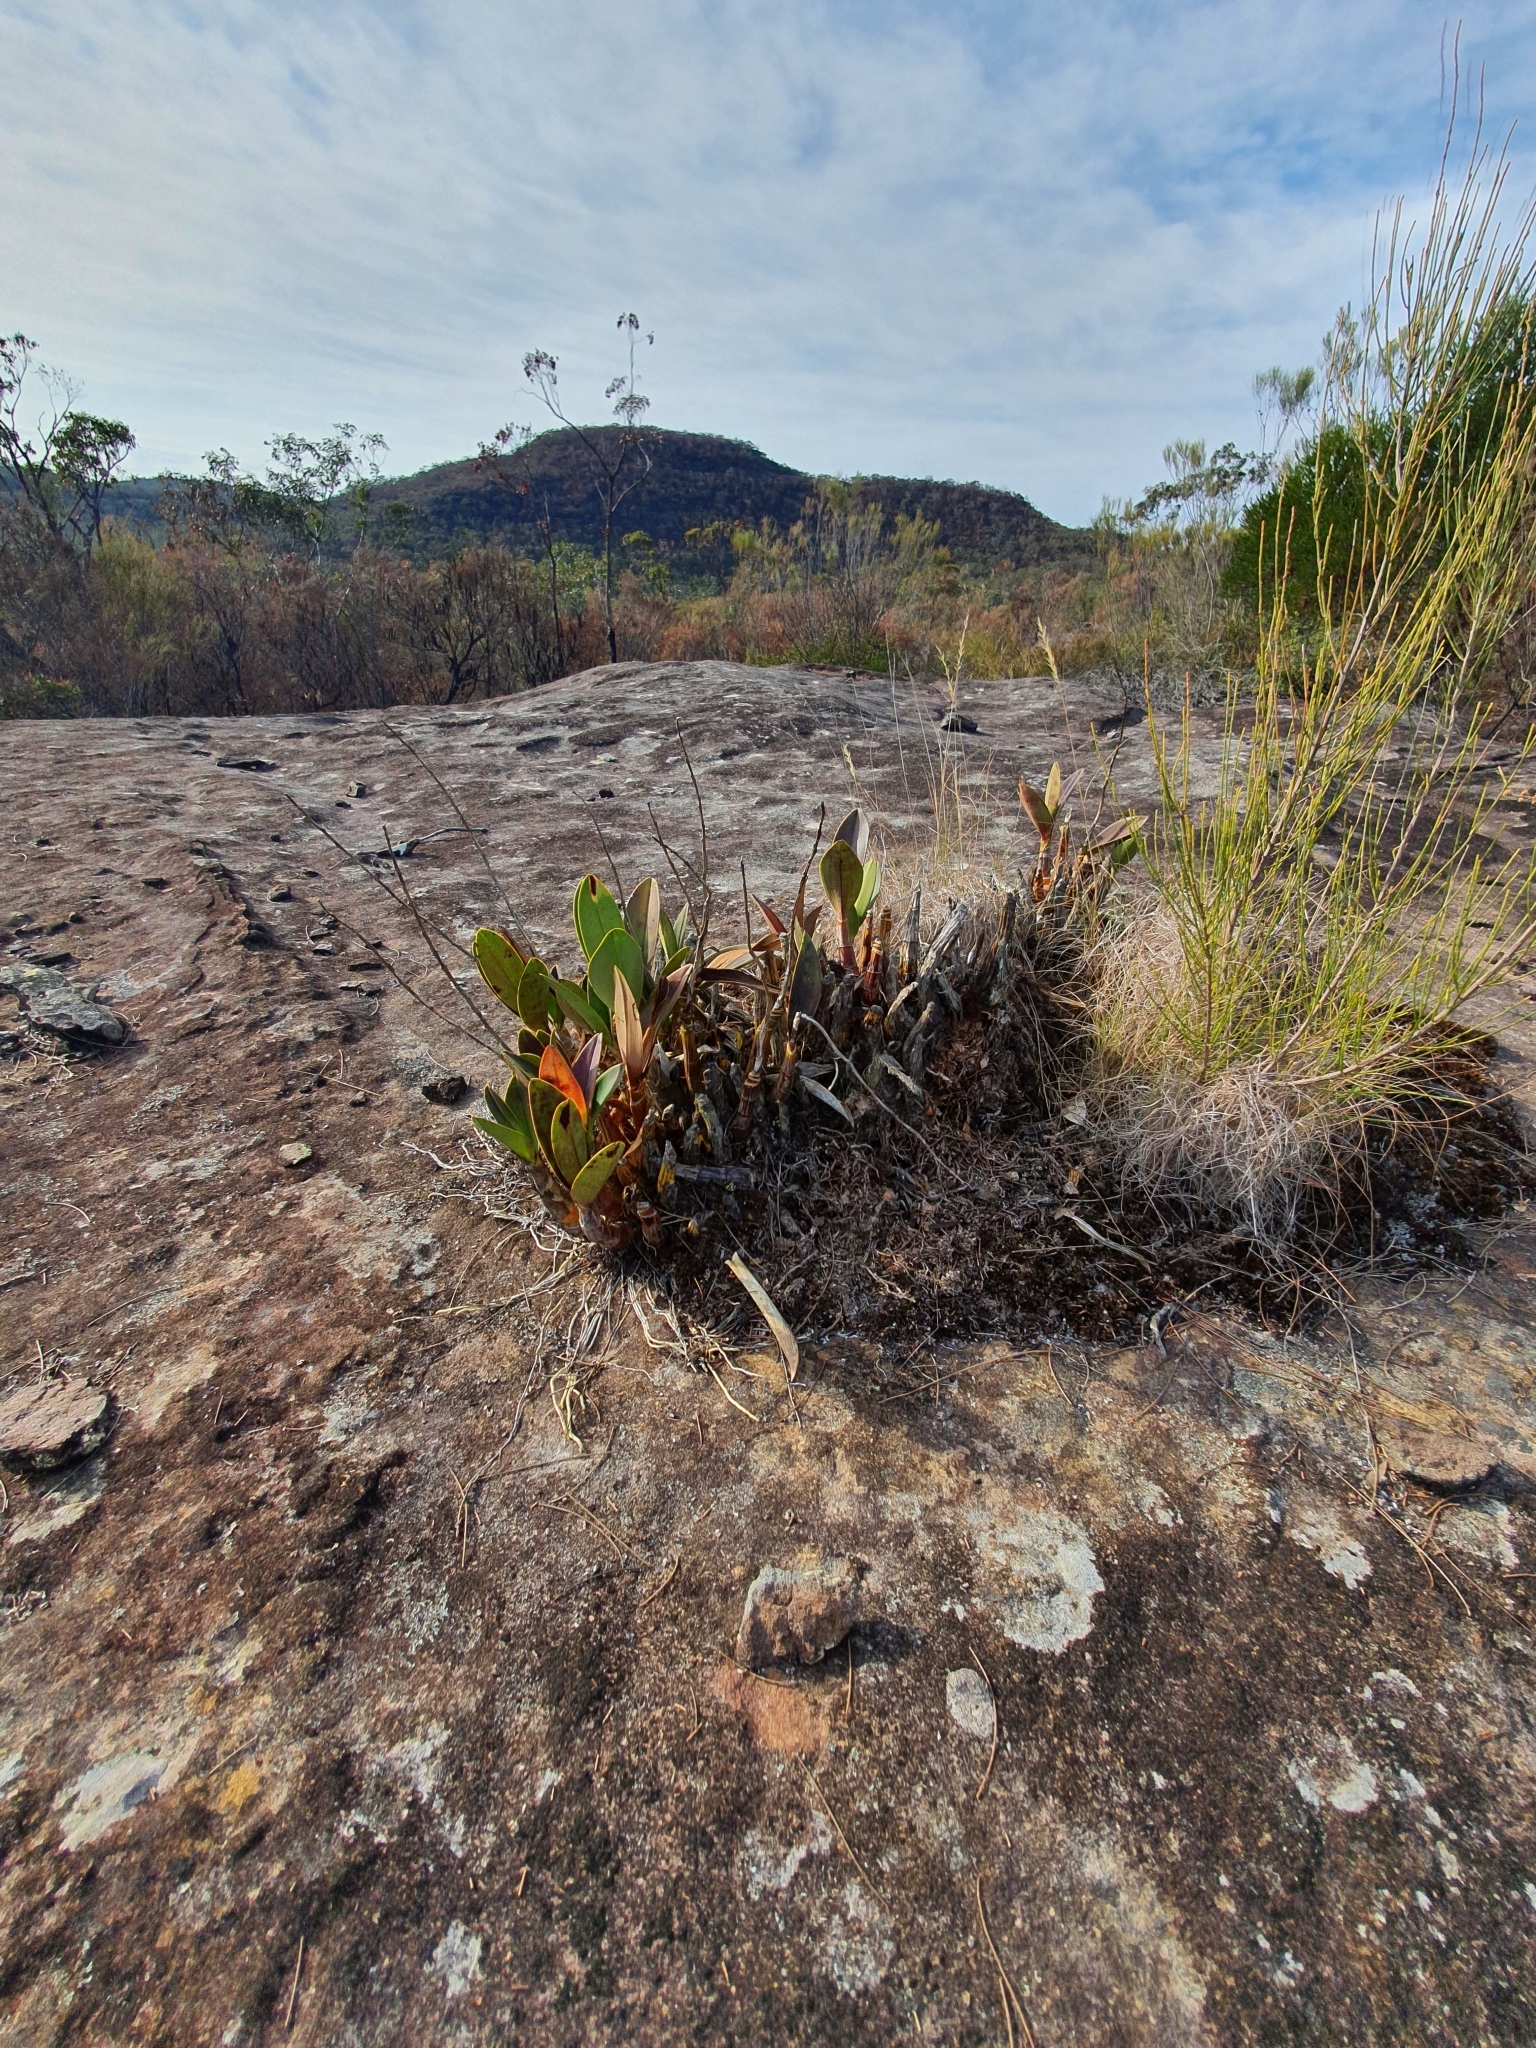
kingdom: Plantae
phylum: Tracheophyta
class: Liliopsida
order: Asparagales
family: Orchidaceae
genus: Dendrobium
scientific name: Dendrobium speciosum
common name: Rock-lily
